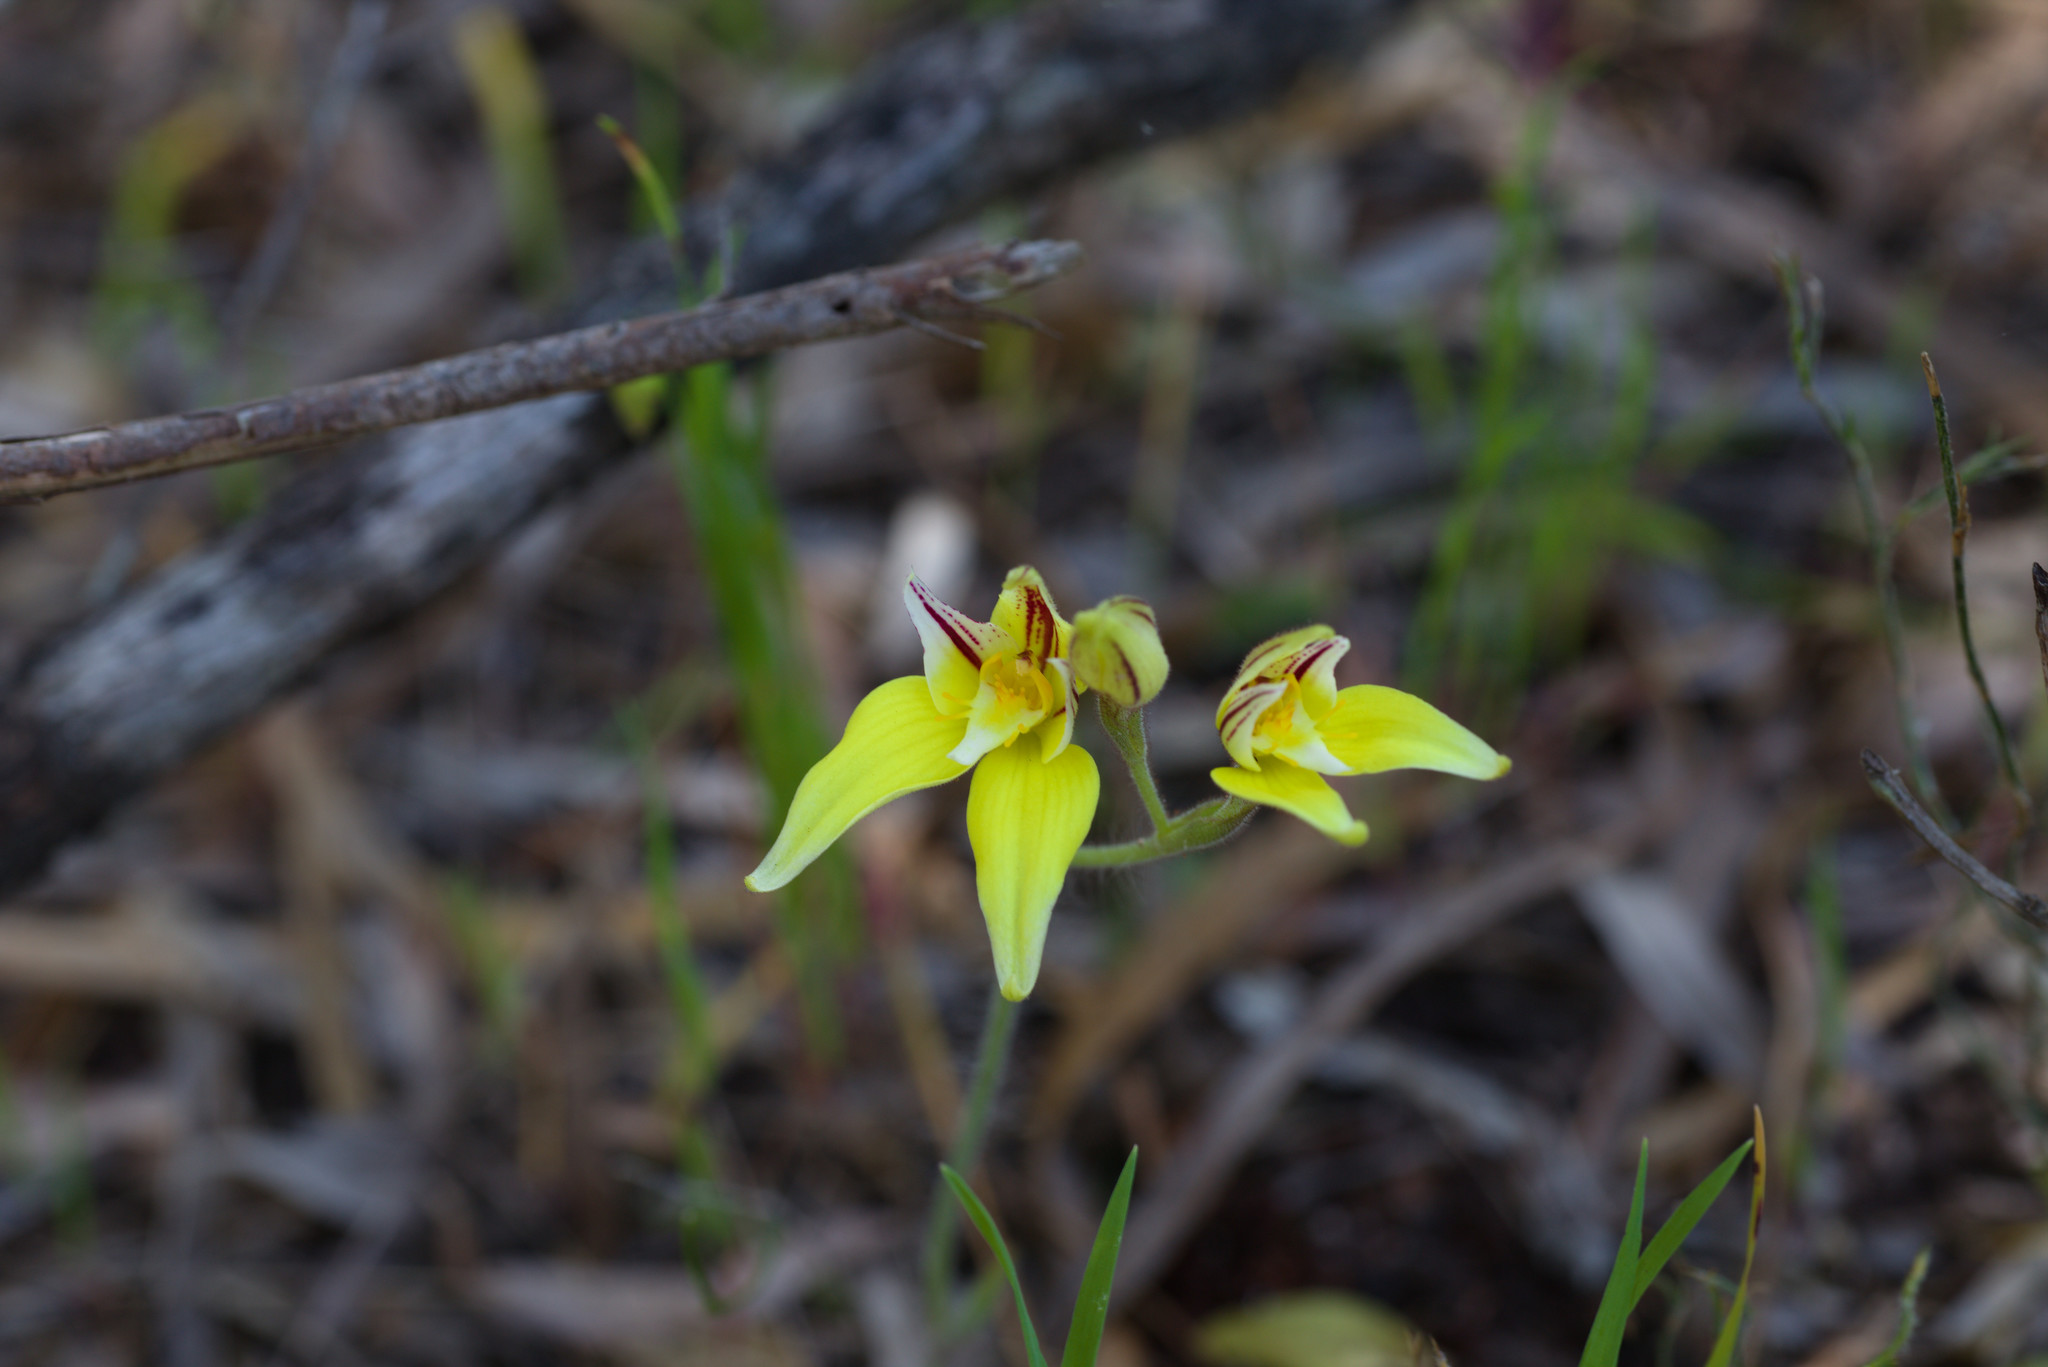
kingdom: Plantae
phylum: Tracheophyta
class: Liliopsida
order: Asparagales
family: Orchidaceae
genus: Caladenia
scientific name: Caladenia flava
